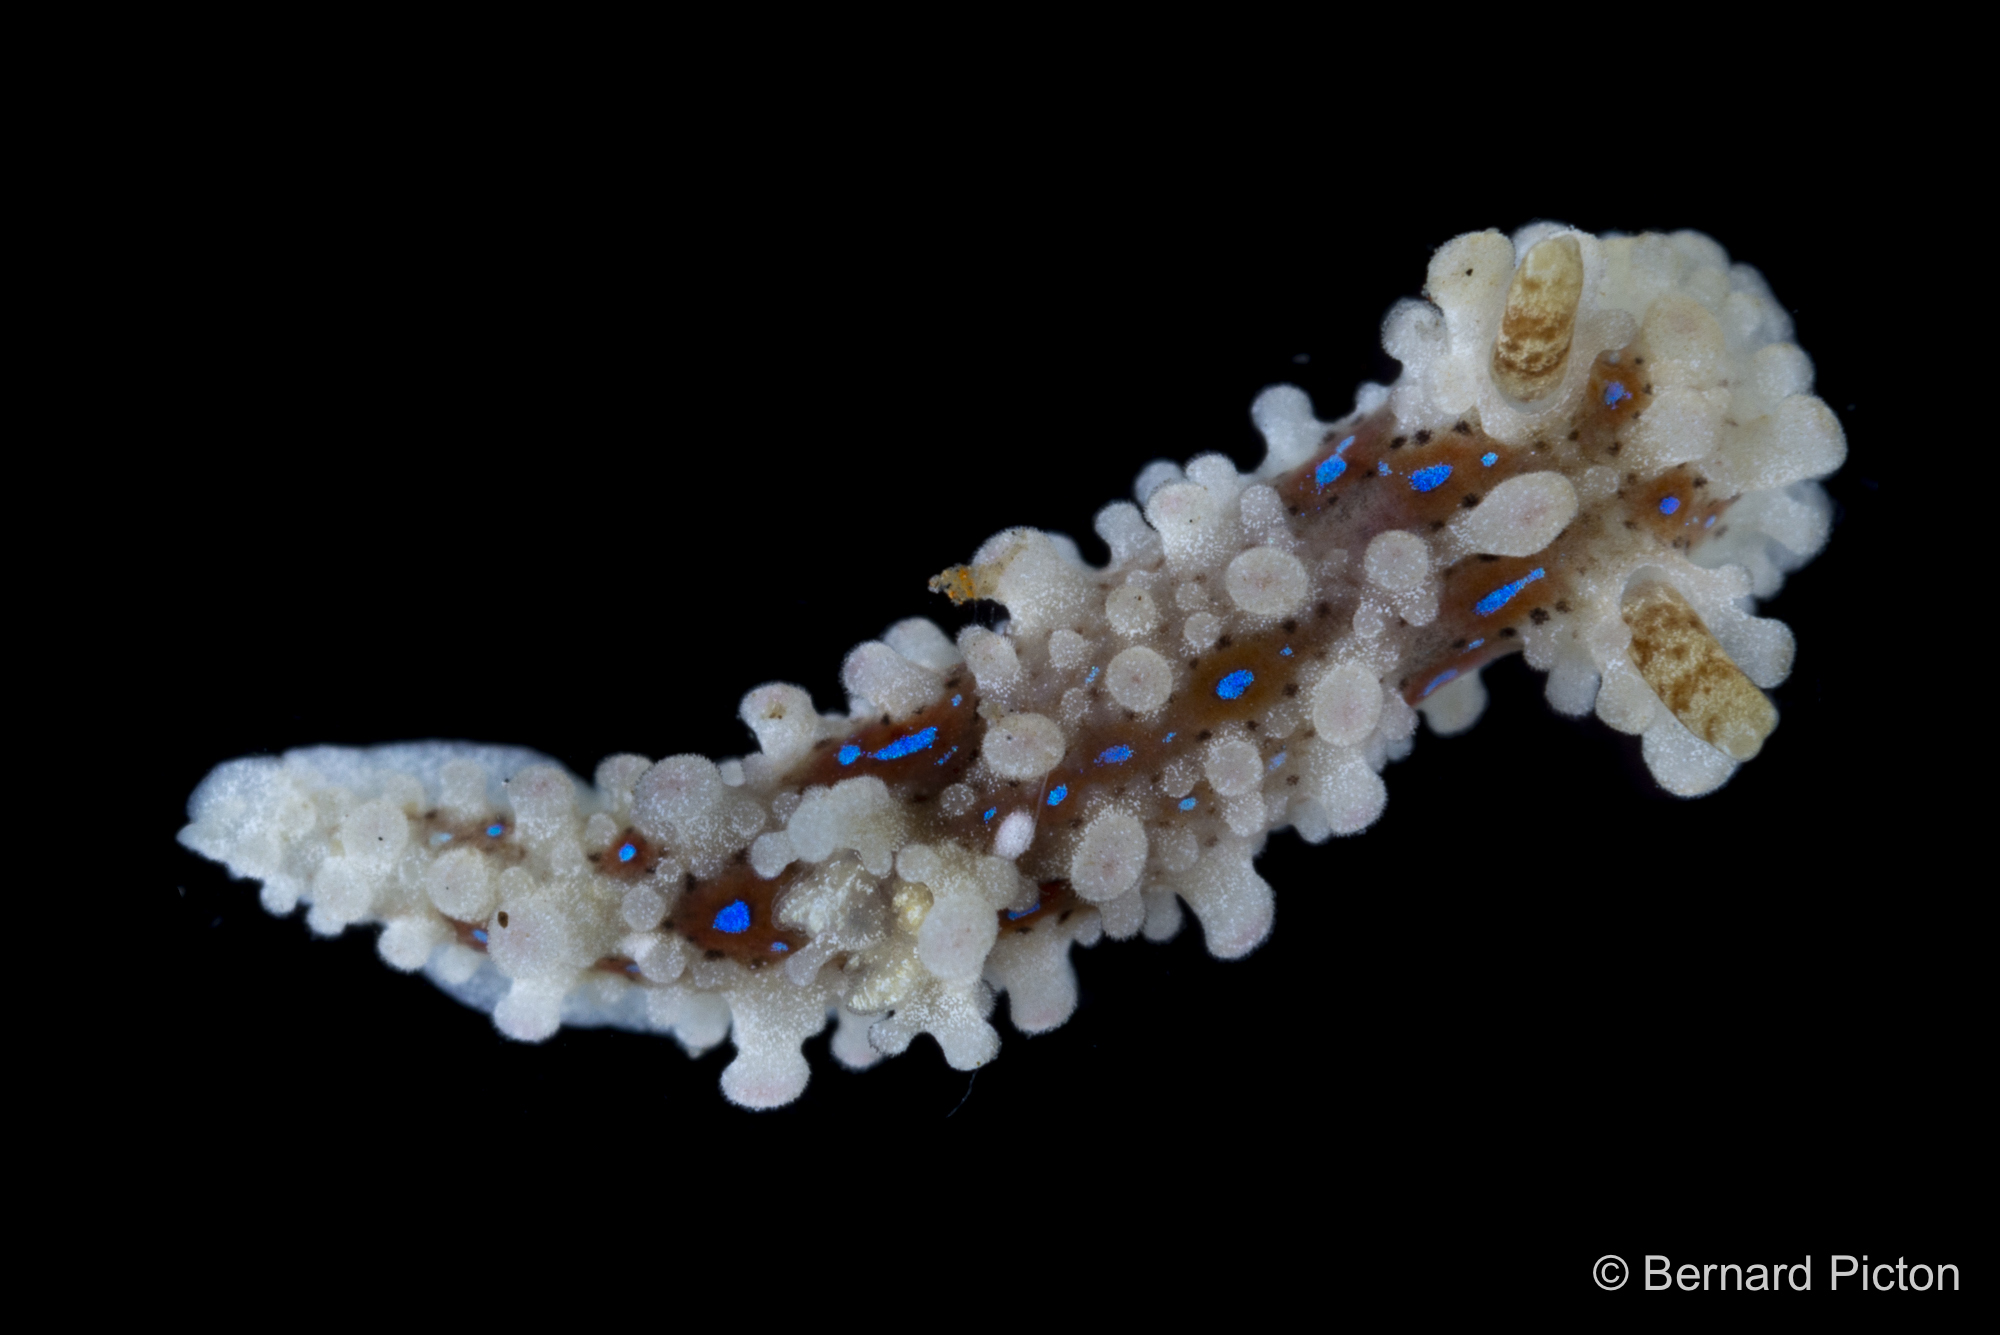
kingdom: Animalia
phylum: Mollusca
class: Gastropoda
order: Nudibranchia
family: Aegiridae
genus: Aegires
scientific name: Aegires punctilucens
